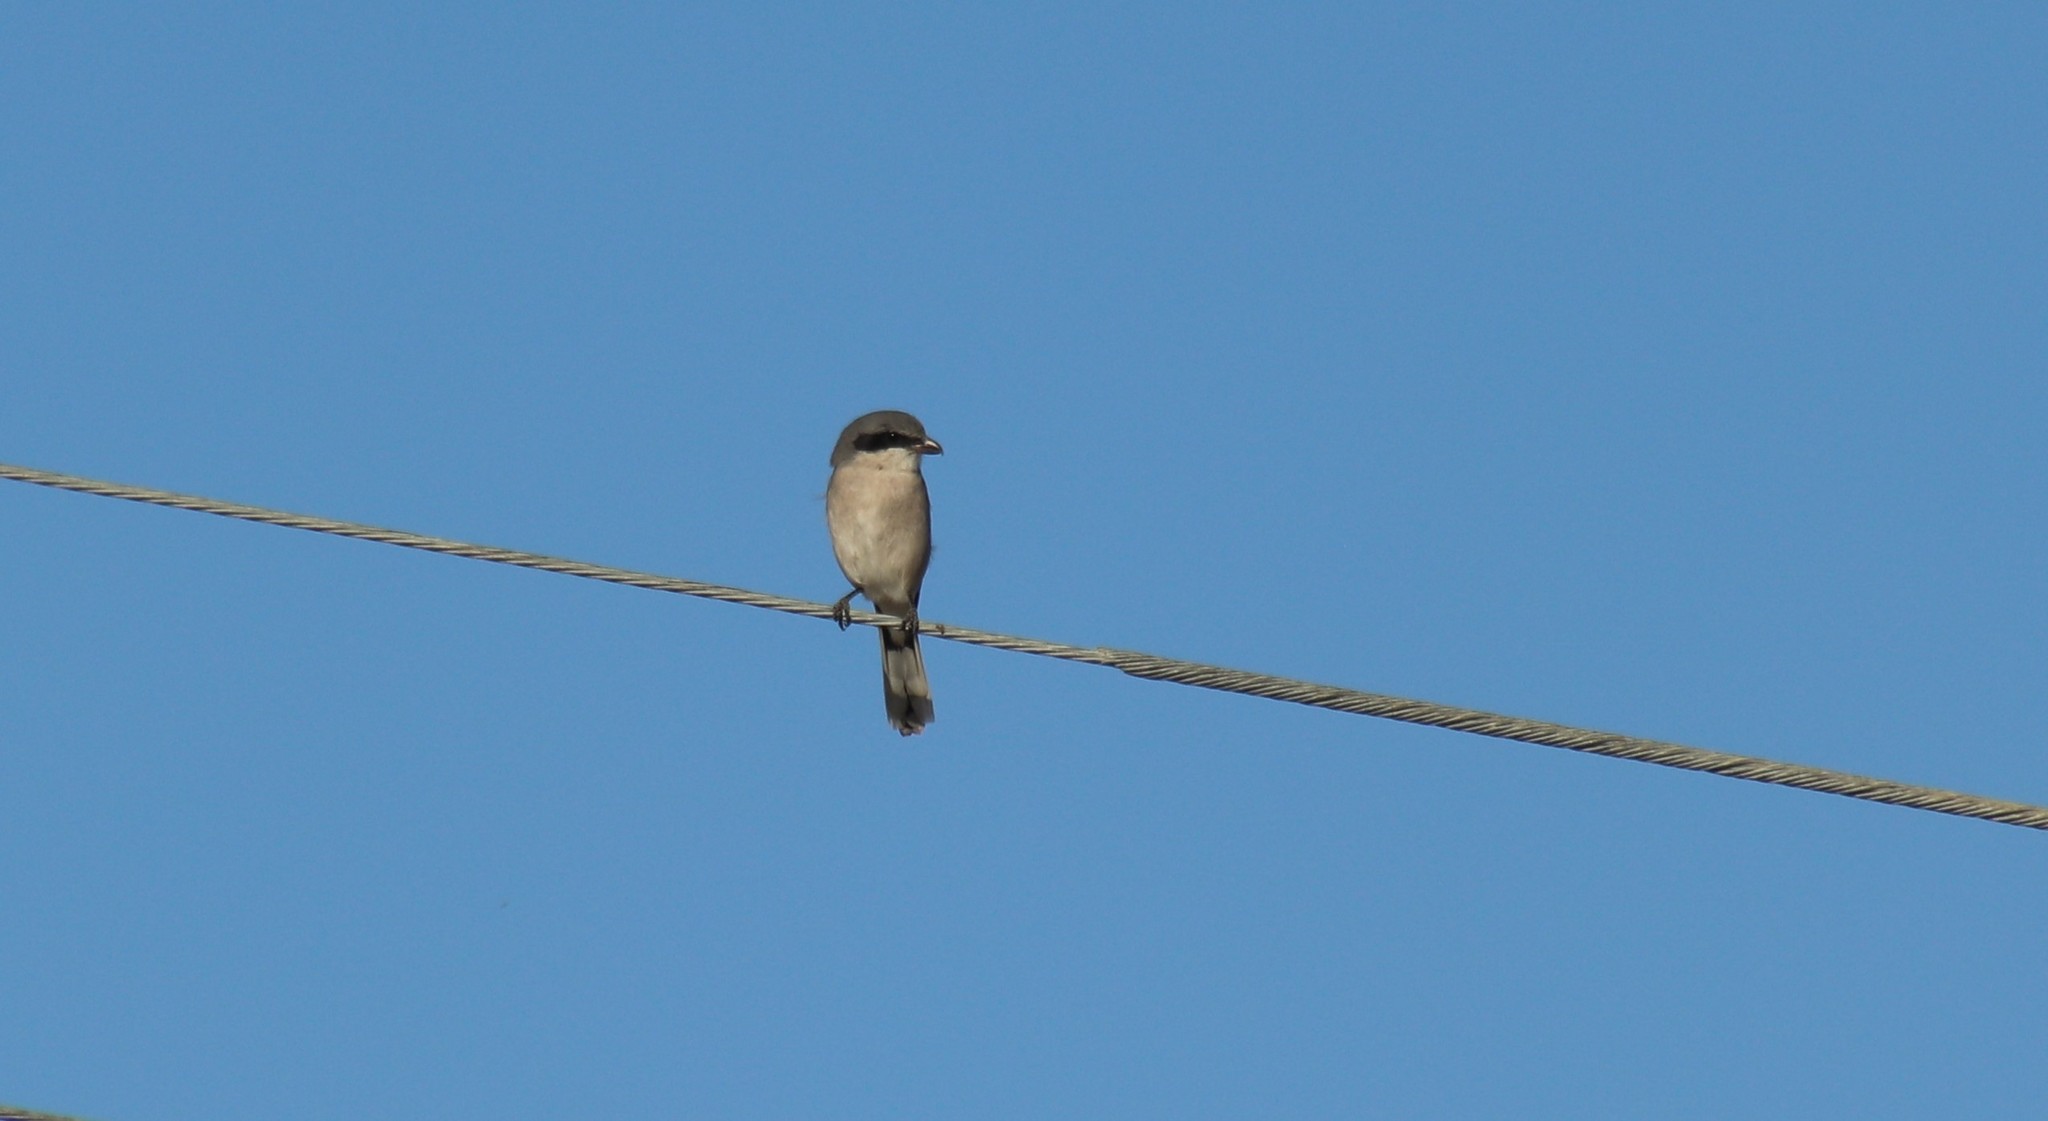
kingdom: Animalia
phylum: Chordata
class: Aves
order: Passeriformes
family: Laniidae
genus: Lanius
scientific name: Lanius ludovicianus
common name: Loggerhead shrike
